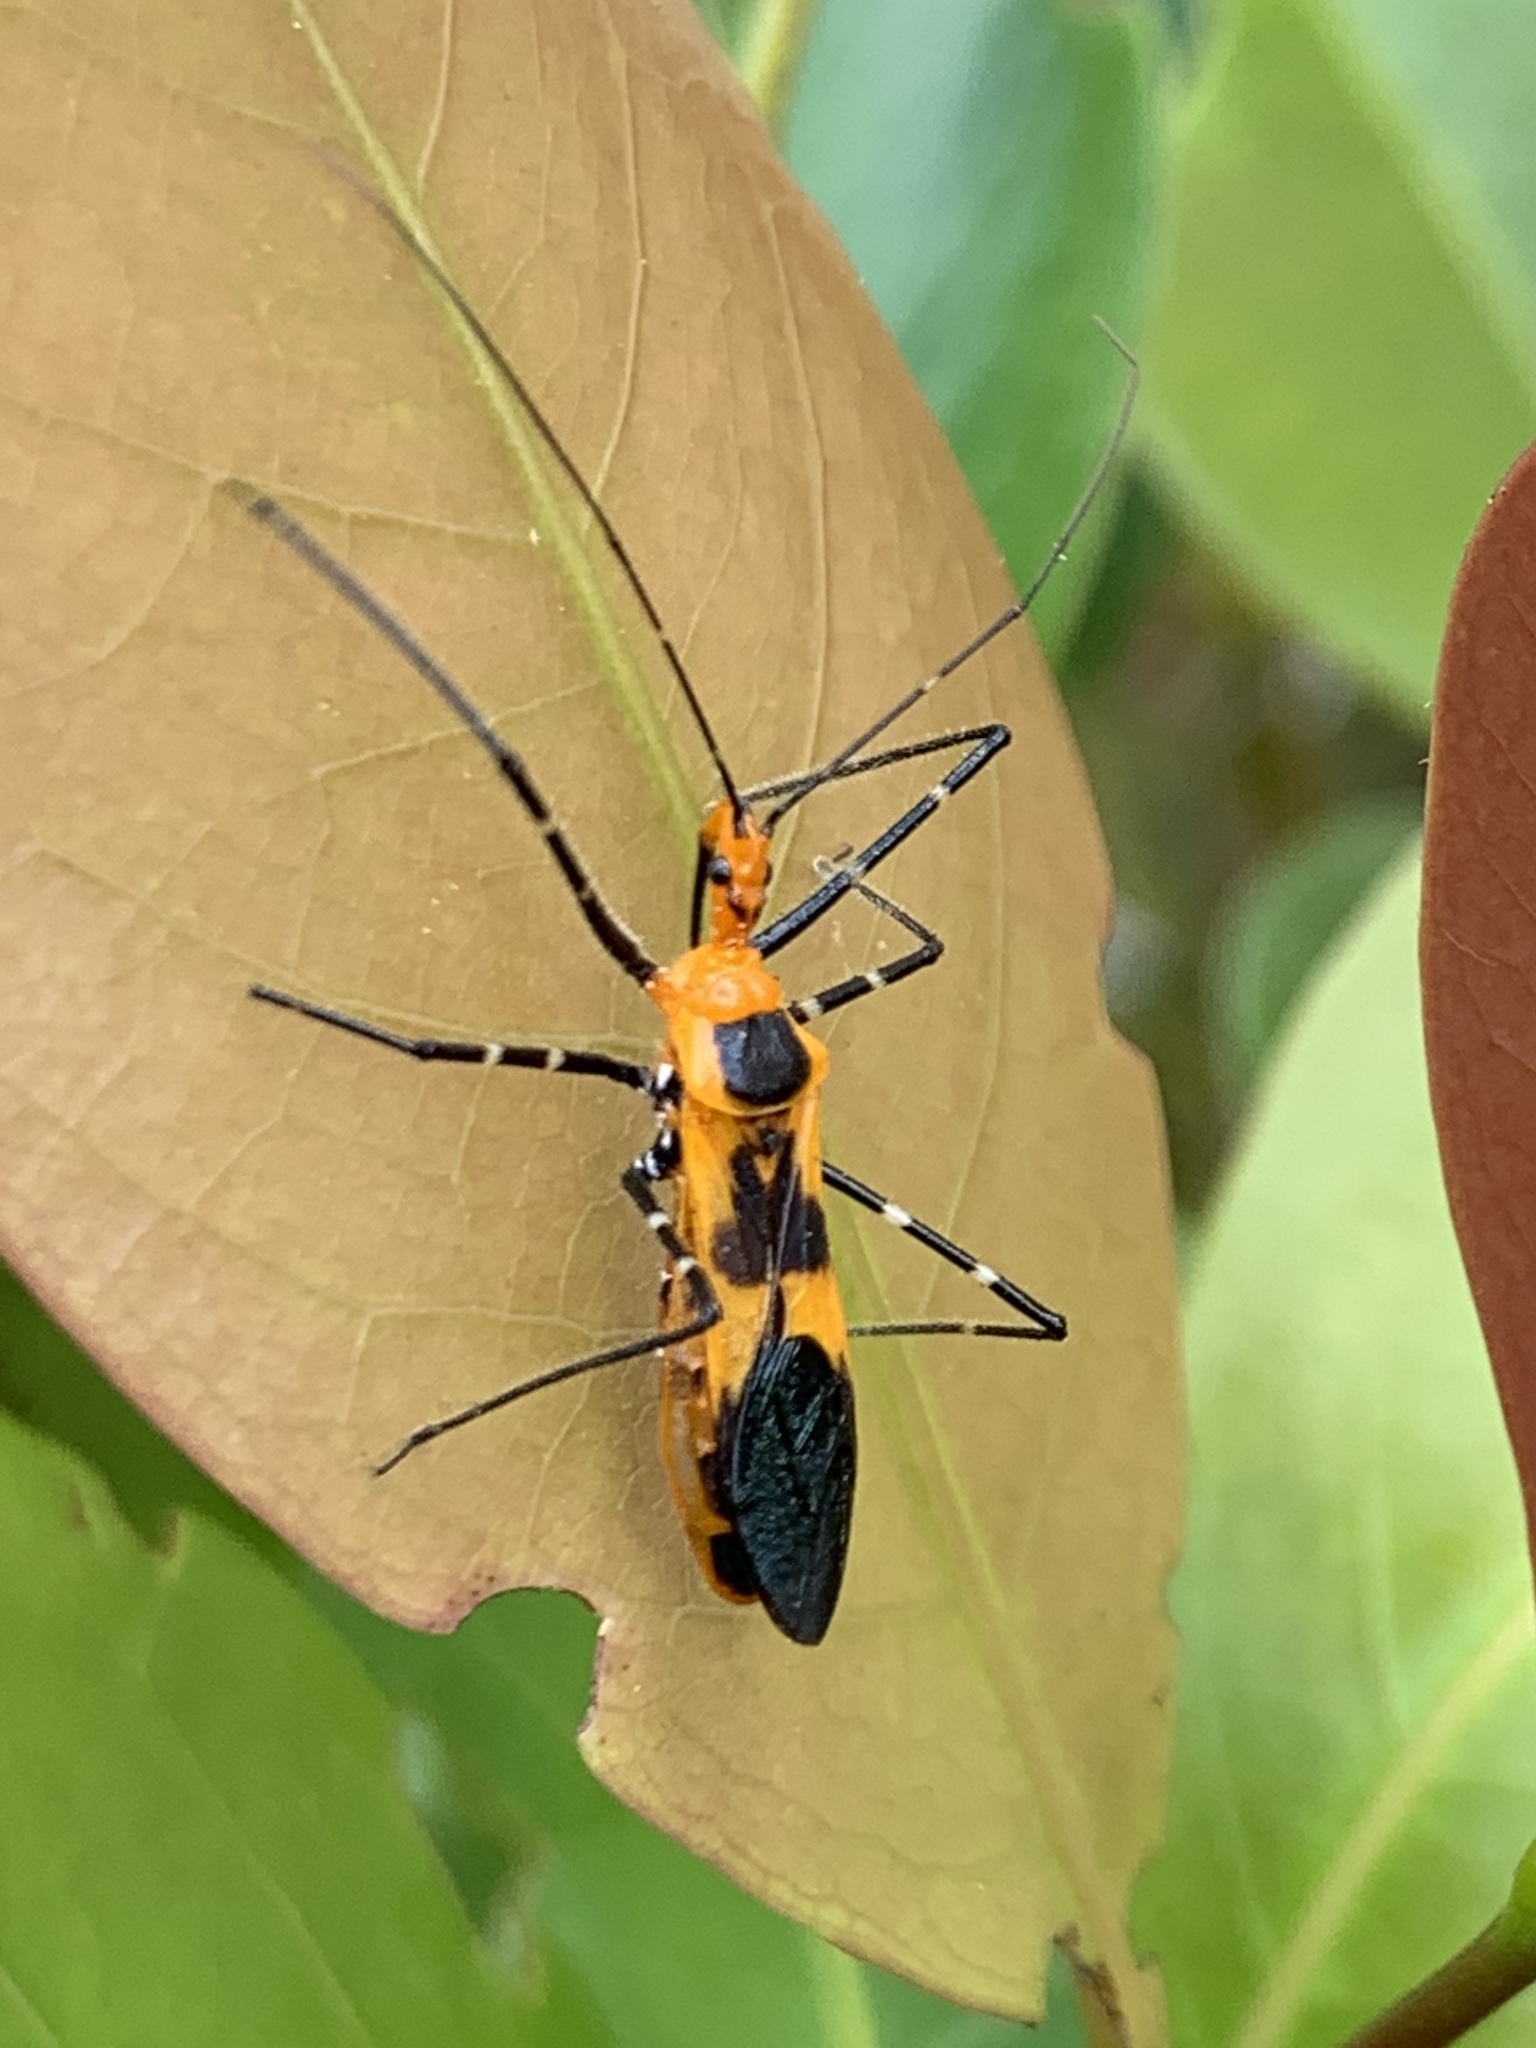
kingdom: Animalia
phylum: Arthropoda
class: Insecta
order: Hemiptera
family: Reduviidae
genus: Zelus
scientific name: Zelus longipes
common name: Milkweed assassin bug
